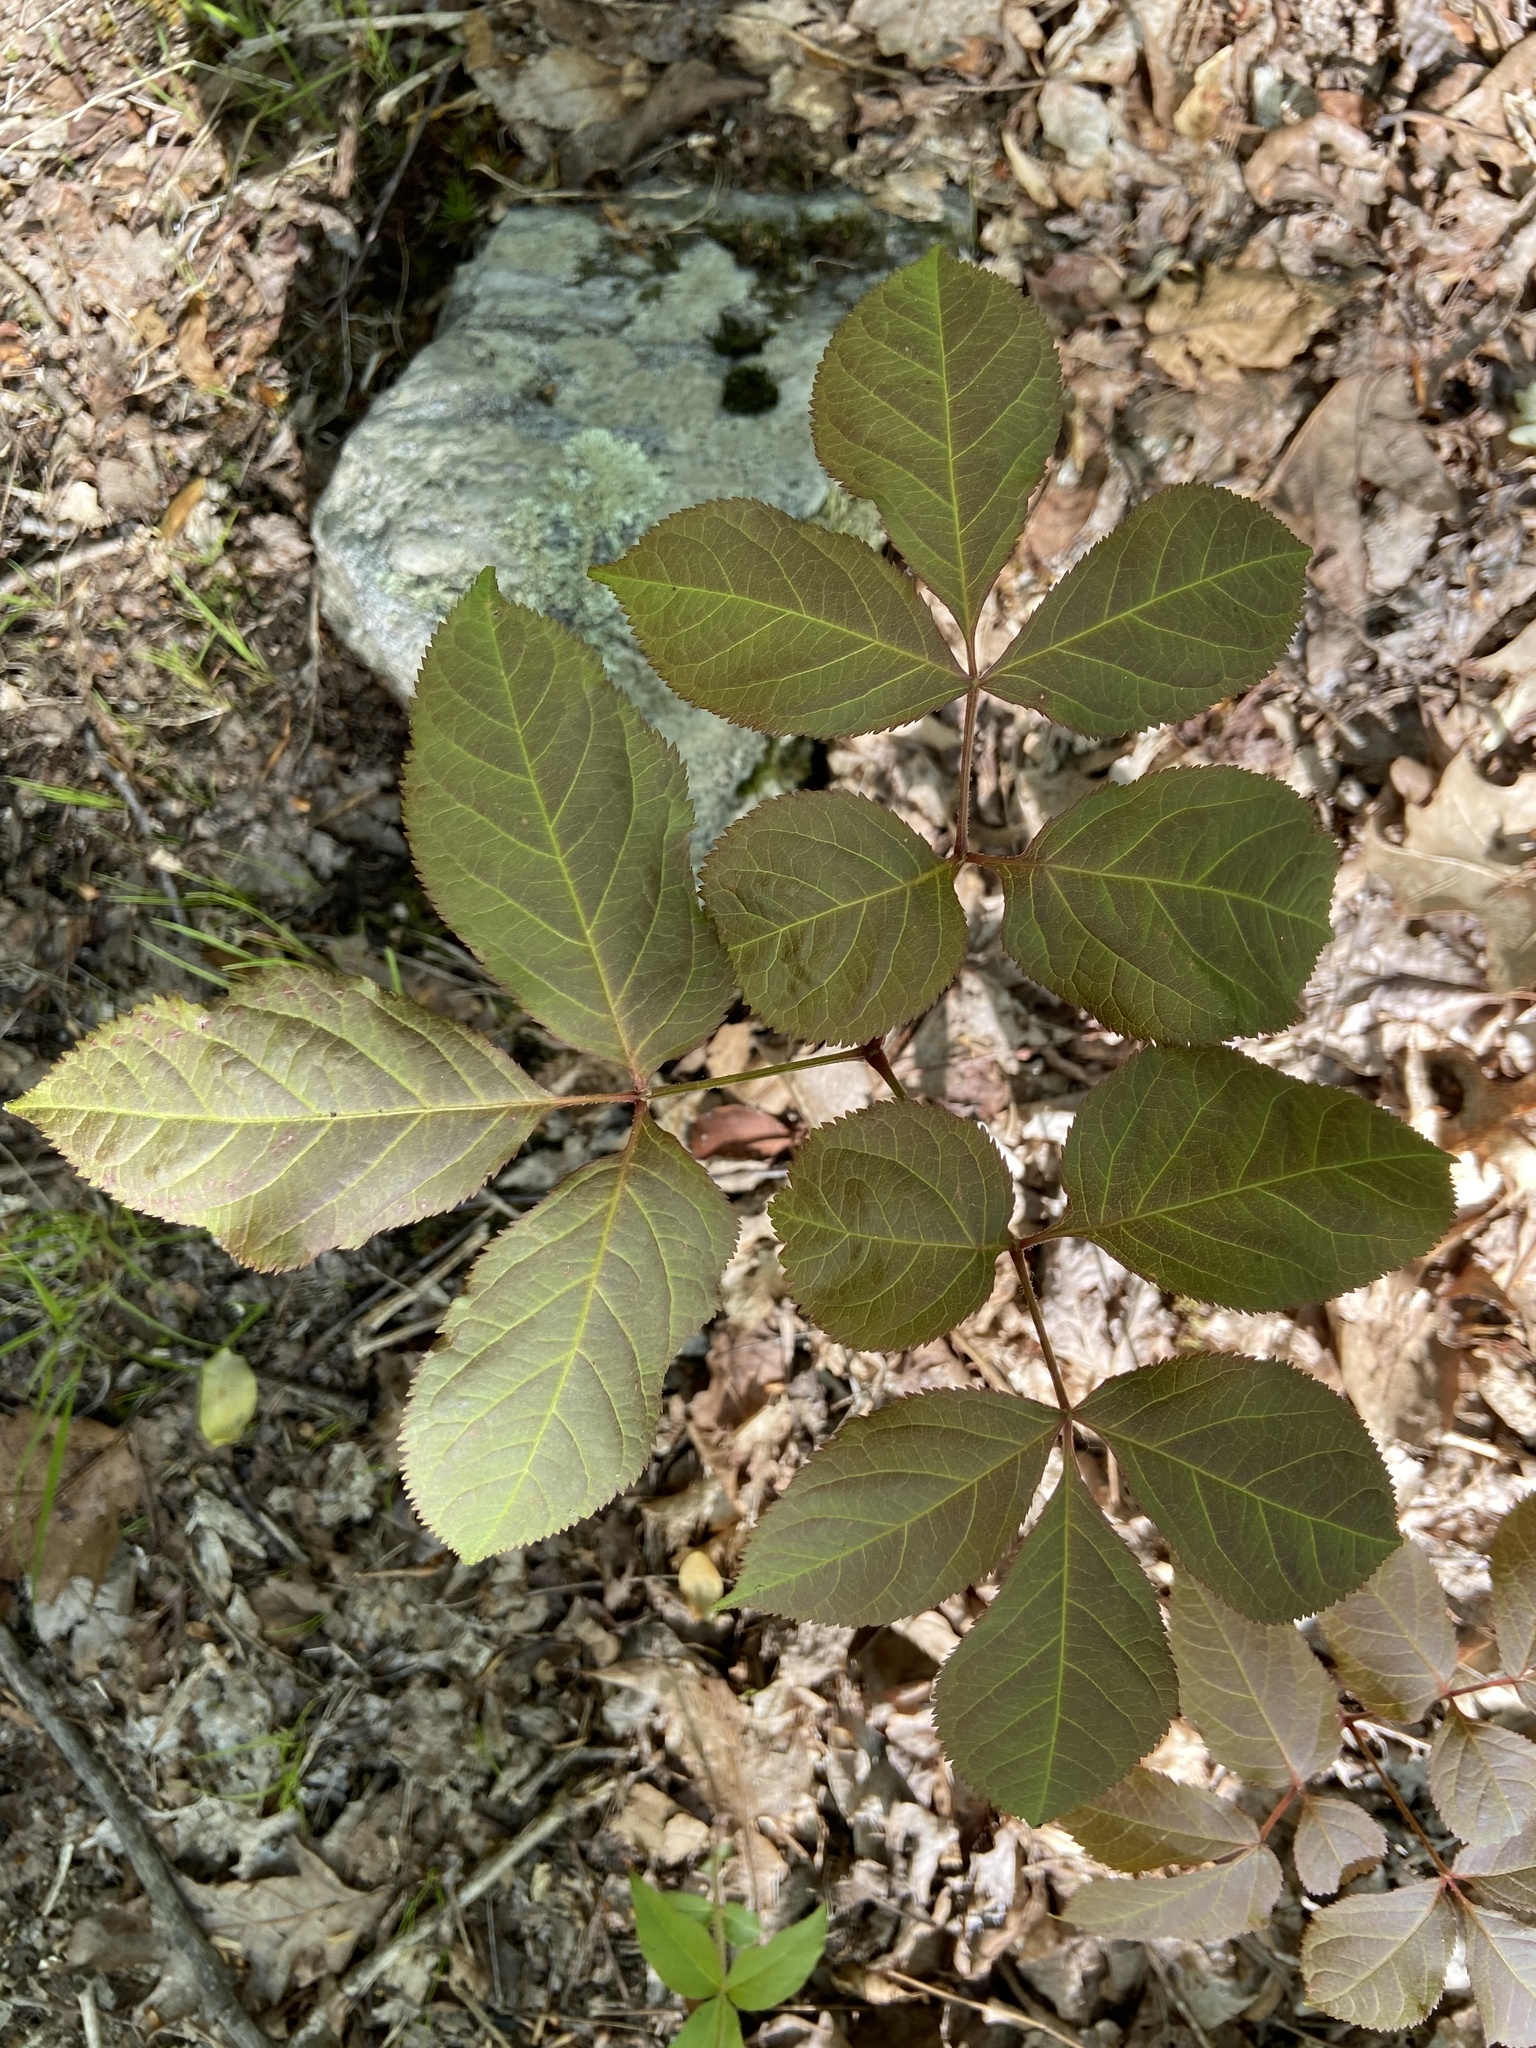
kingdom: Plantae
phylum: Tracheophyta
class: Magnoliopsida
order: Apiales
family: Araliaceae
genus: Aralia
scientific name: Aralia nudicaulis
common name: Wild sarsaparilla
